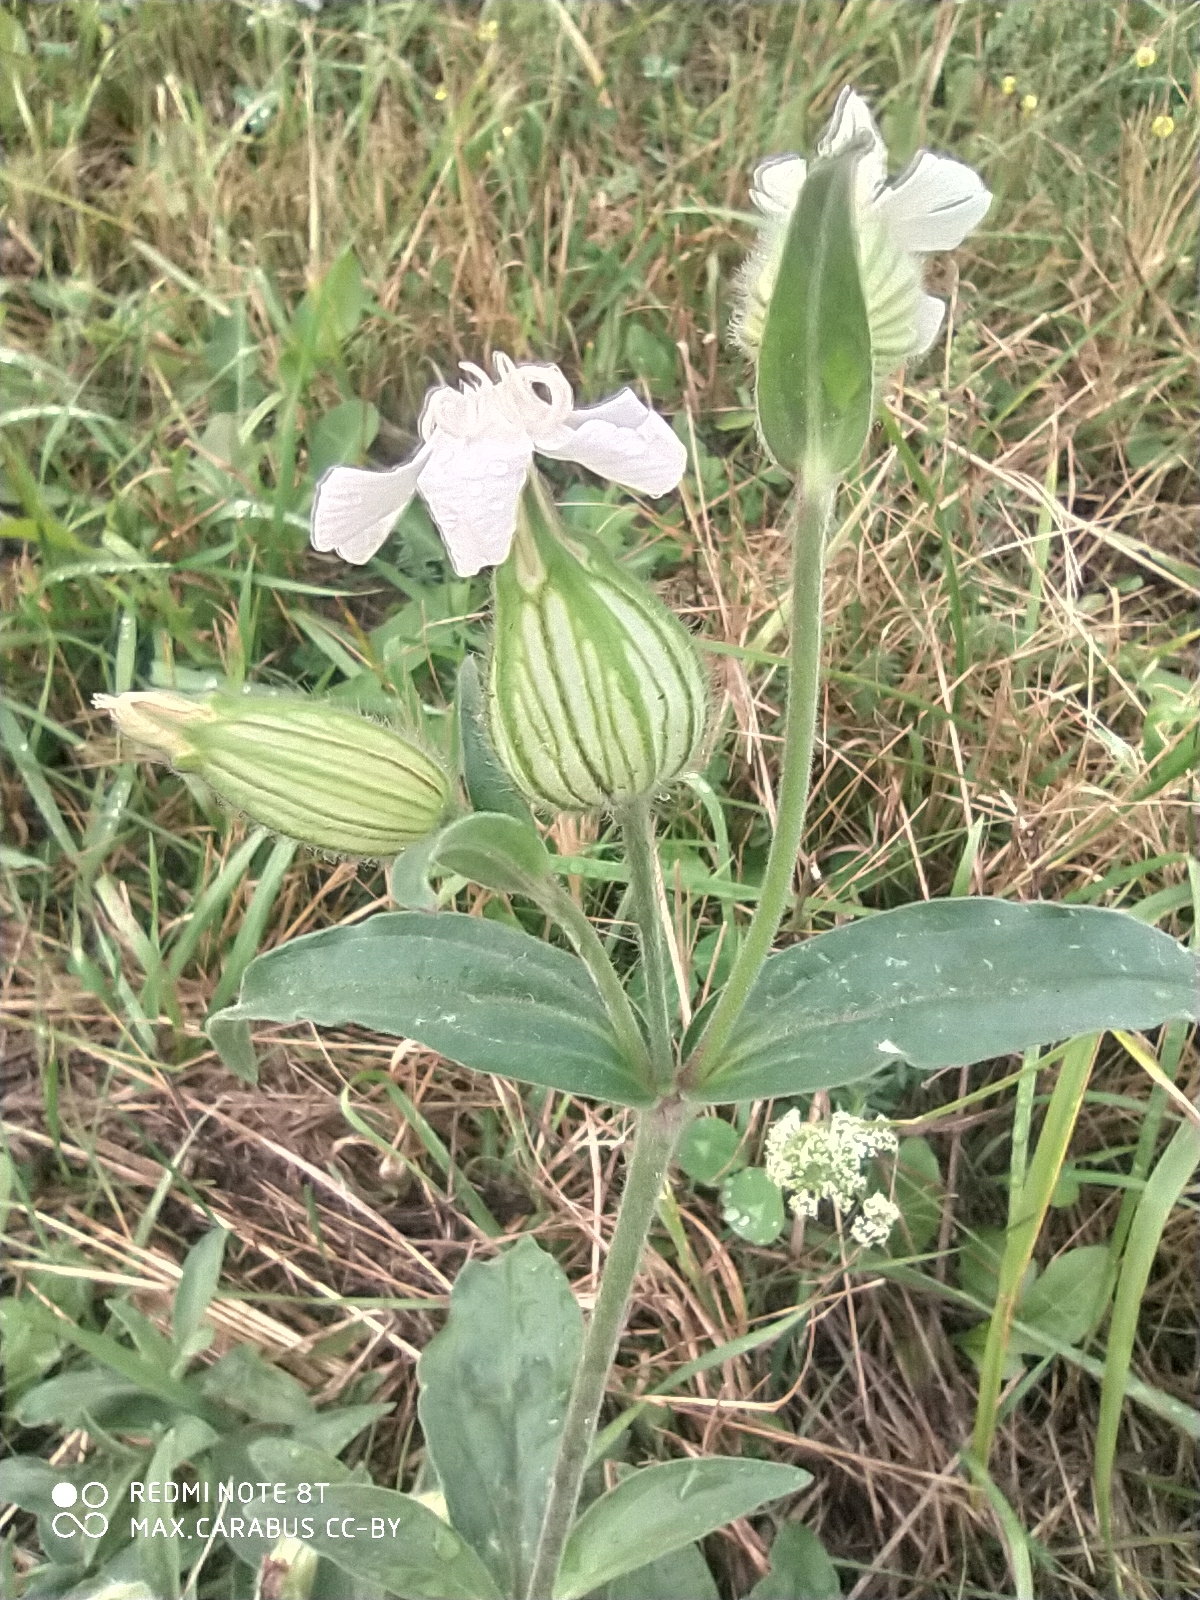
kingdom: Plantae
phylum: Tracheophyta
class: Magnoliopsida
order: Caryophyllales
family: Caryophyllaceae
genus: Silene
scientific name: Silene latifolia
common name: White campion
